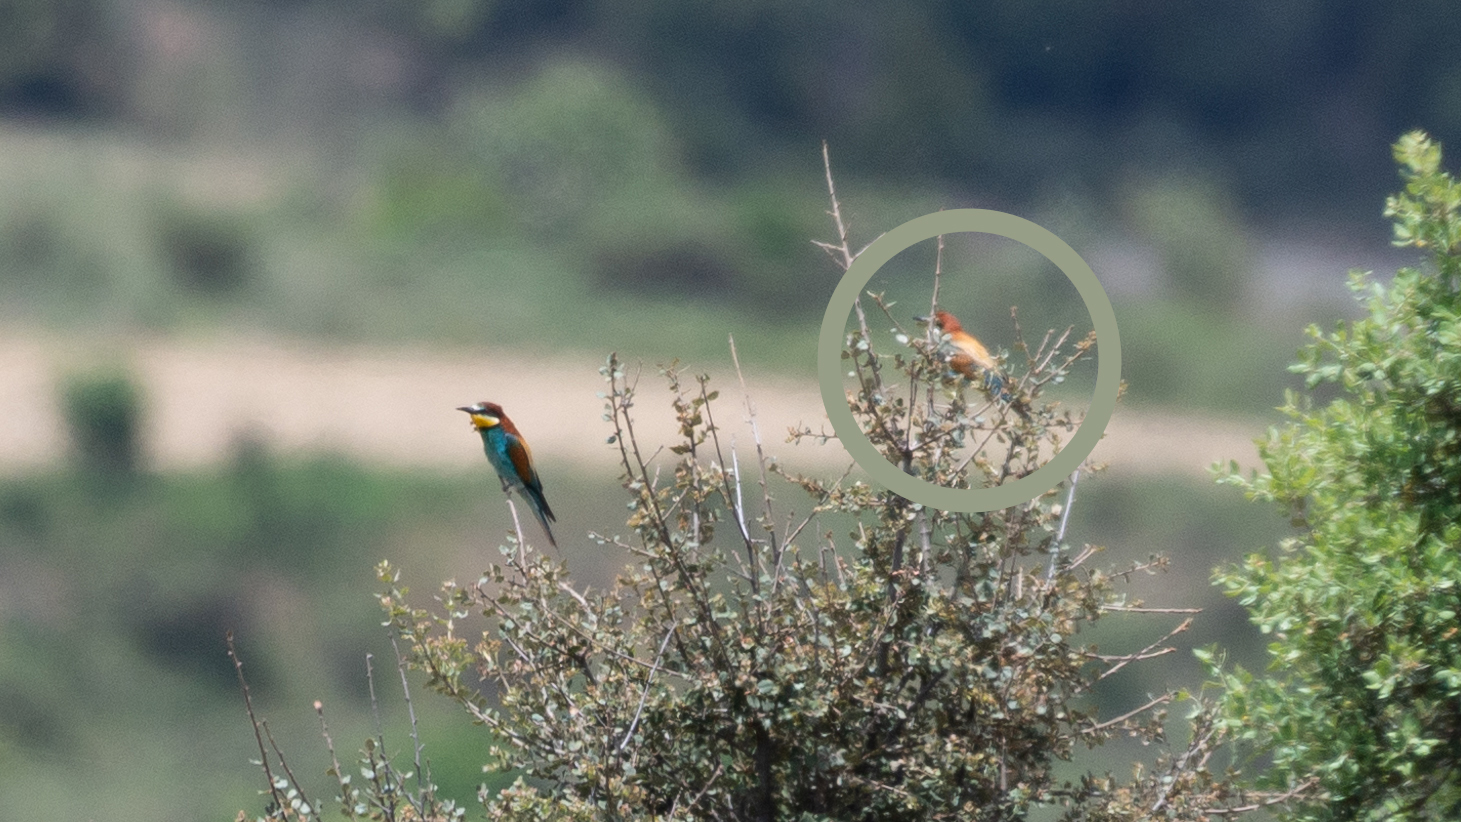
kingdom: Animalia
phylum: Chordata
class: Aves
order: Coraciiformes
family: Meropidae
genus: Merops
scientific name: Merops apiaster
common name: European bee-eater
